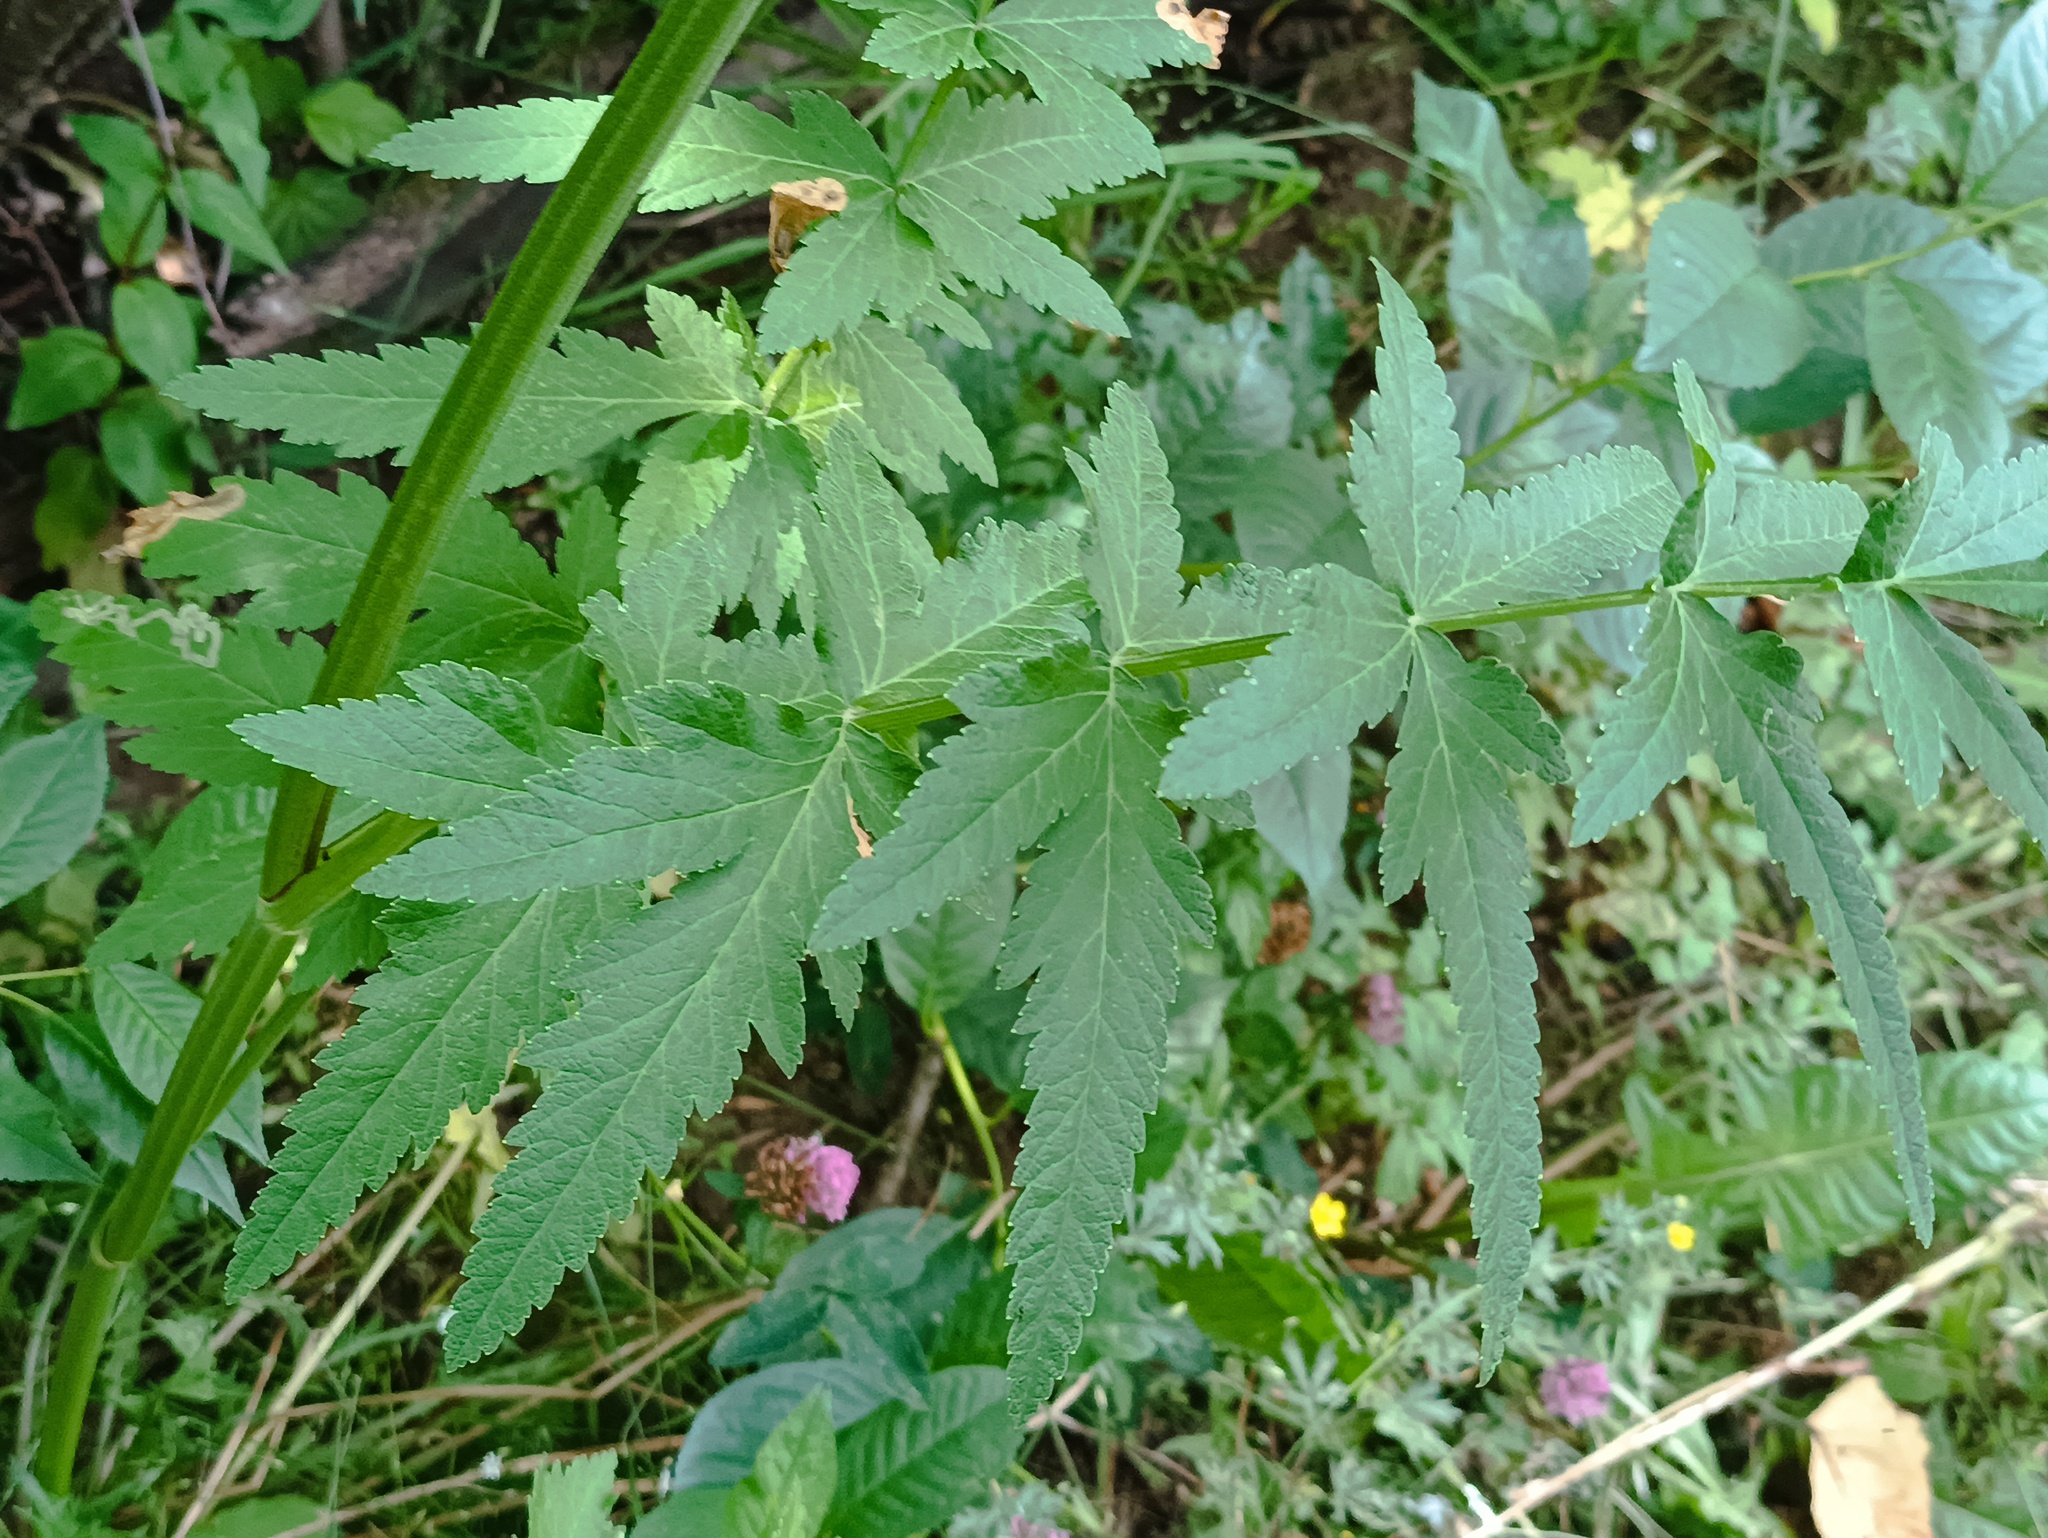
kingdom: Plantae
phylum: Tracheophyta
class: Magnoliopsida
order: Apiales
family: Apiaceae
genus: Pastinaca
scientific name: Pastinaca sativa
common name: Wild parsnip
